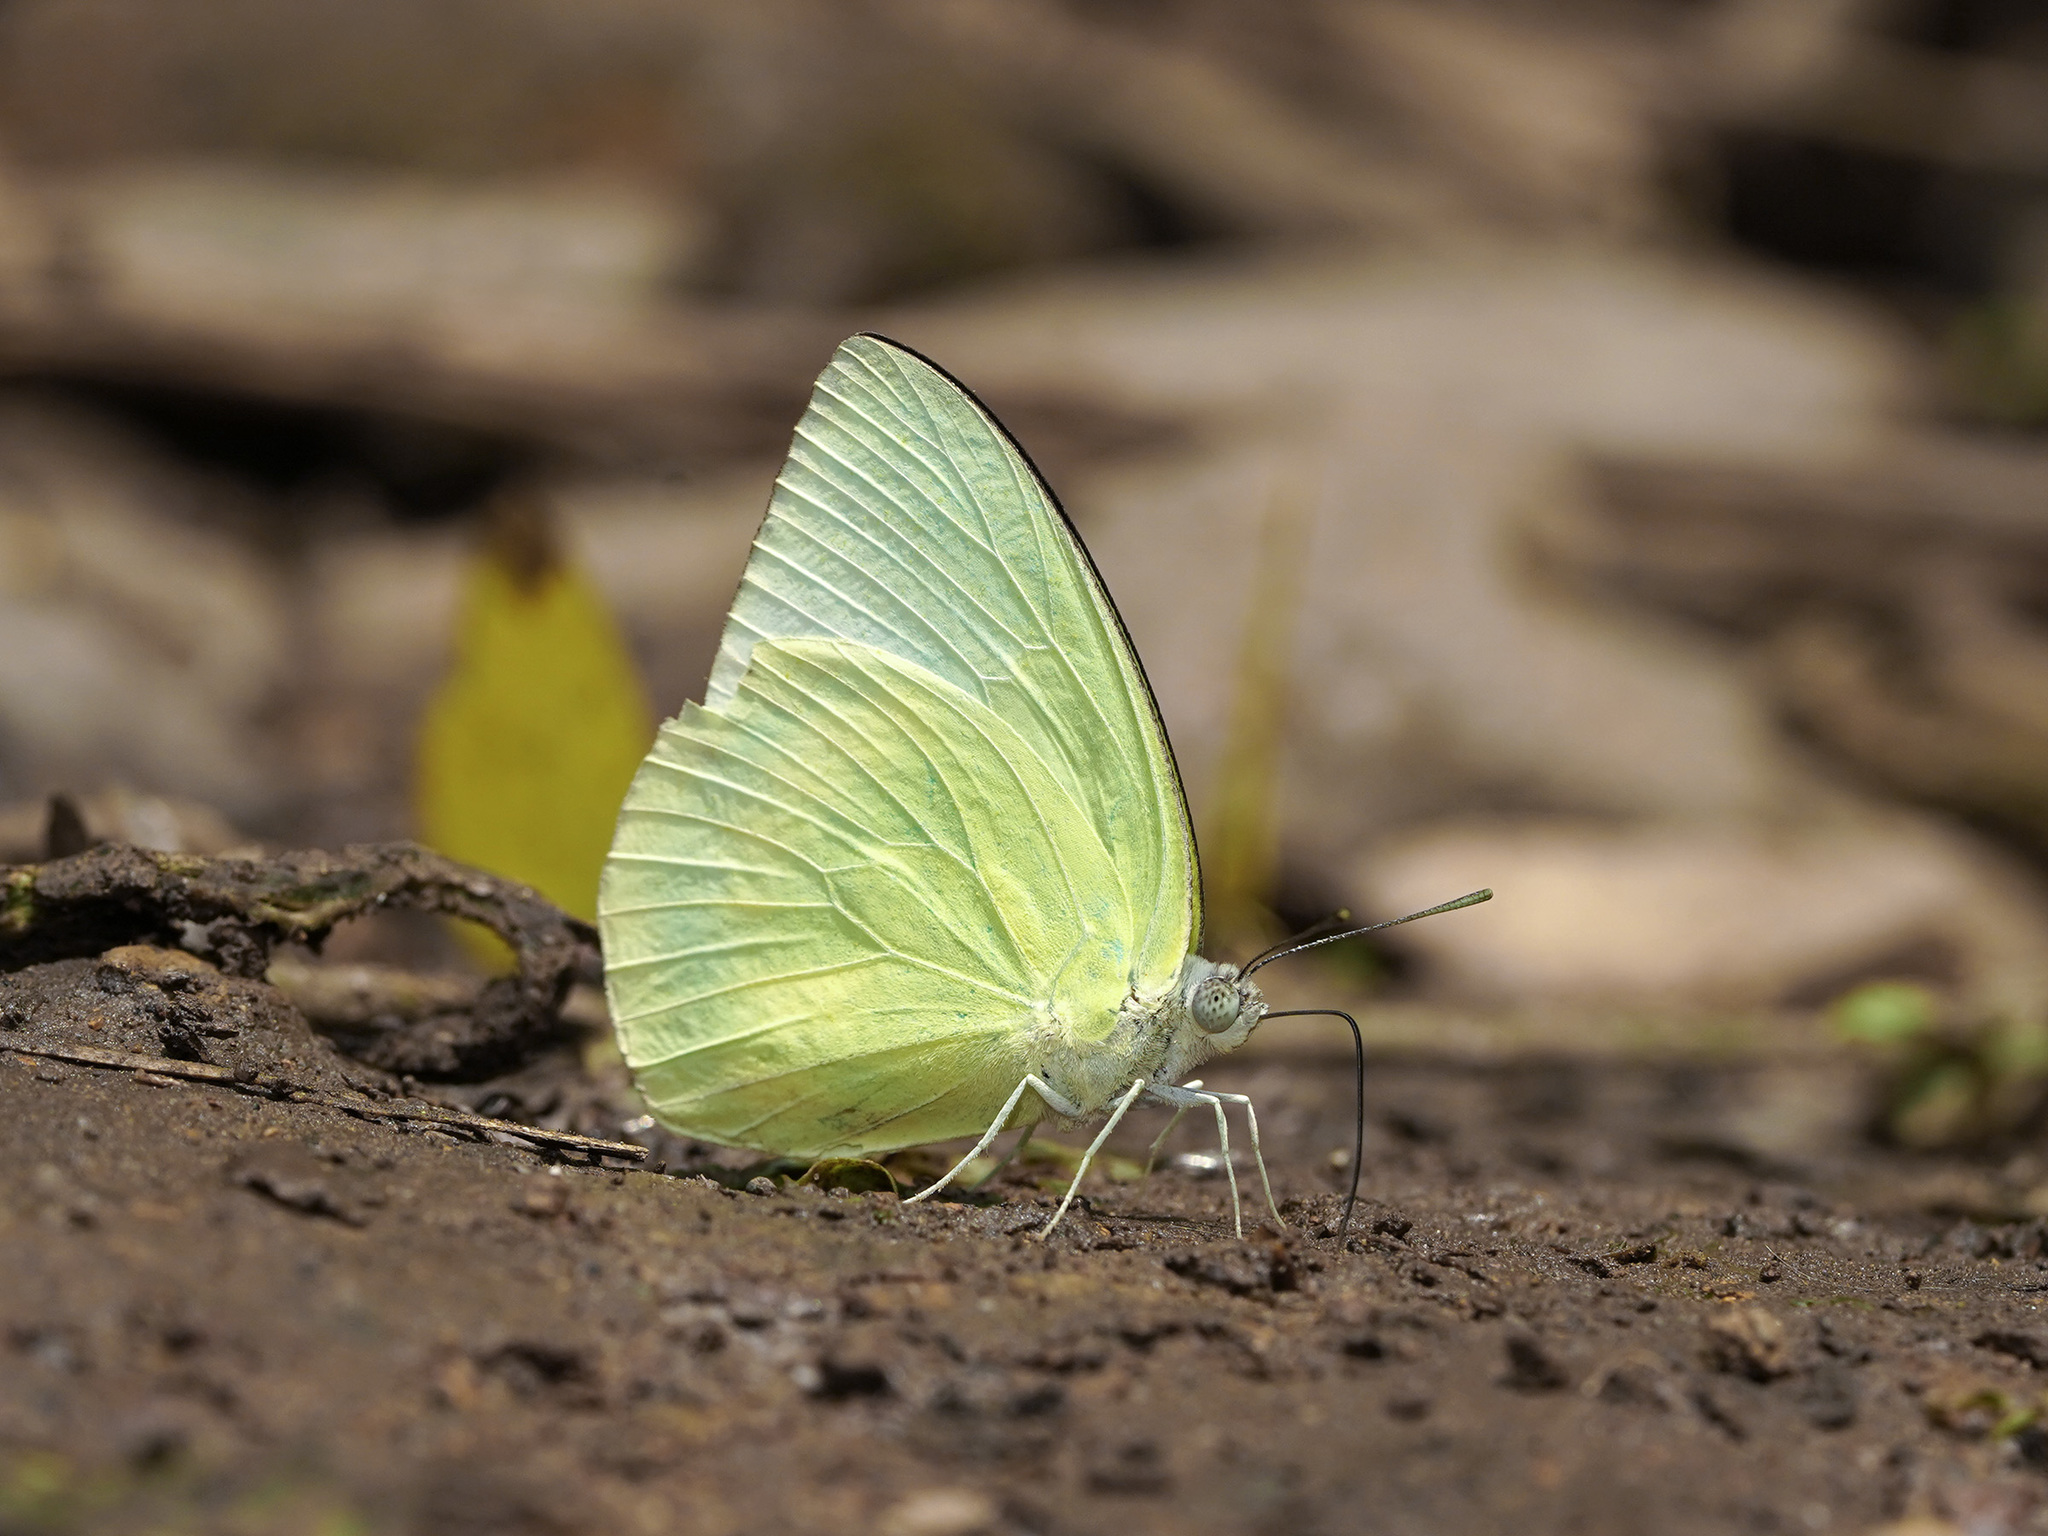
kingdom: Animalia
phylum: Arthropoda
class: Insecta
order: Lepidoptera
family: Pieridae
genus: Catopsilia
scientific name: Catopsilia pomona
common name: Common emigrant
